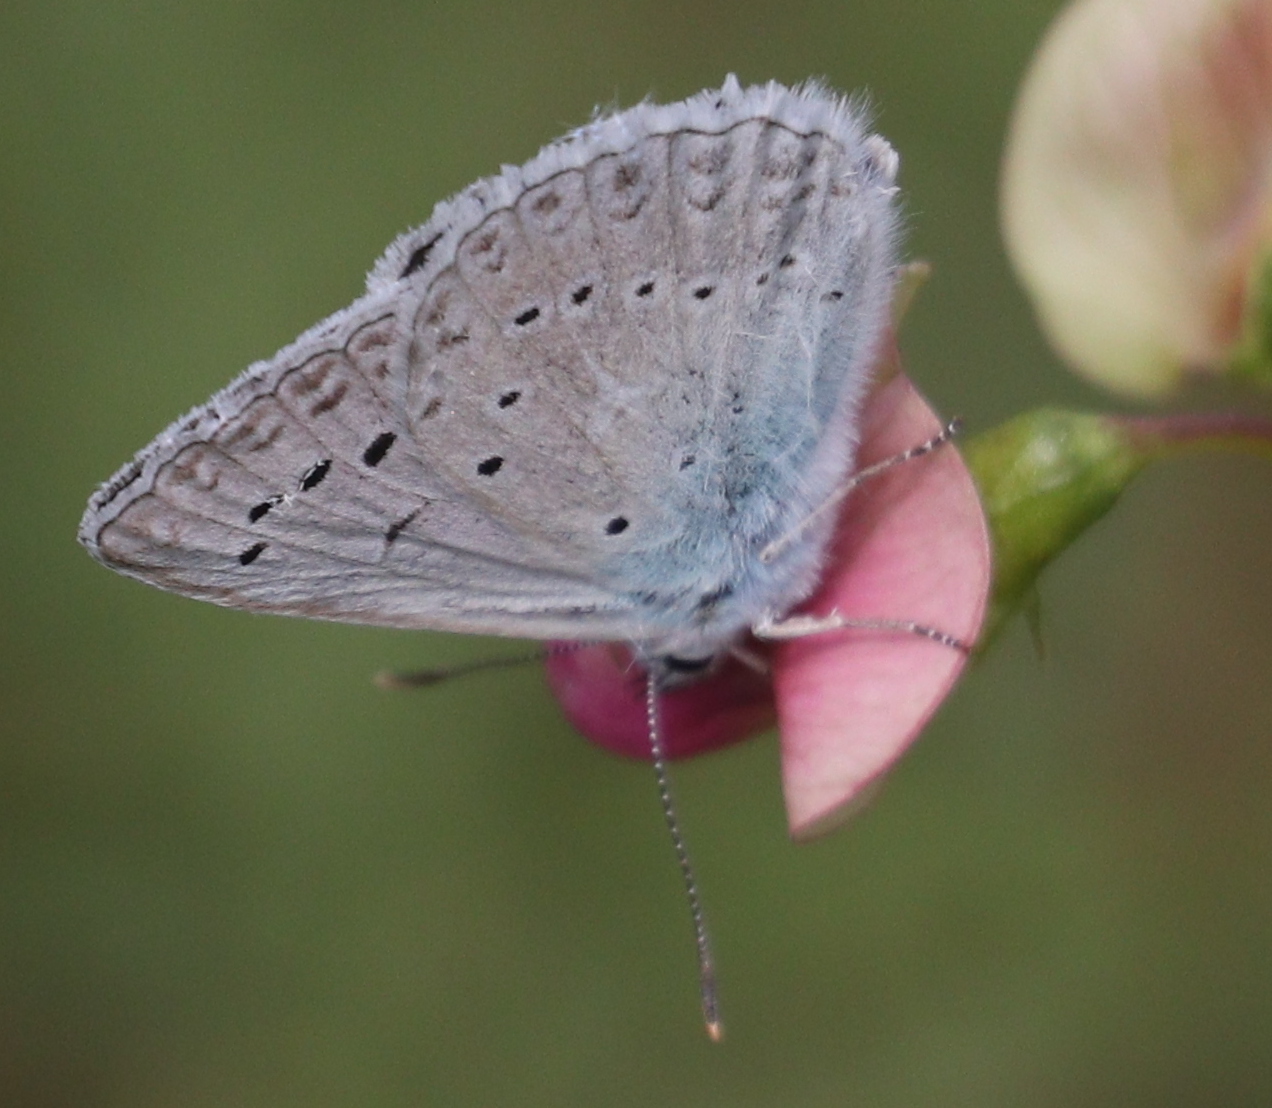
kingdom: Animalia
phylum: Arthropoda
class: Insecta
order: Lepidoptera
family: Lycaenidae
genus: Polyommatus
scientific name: Polyommatus daphnis
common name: Meleager's blue
